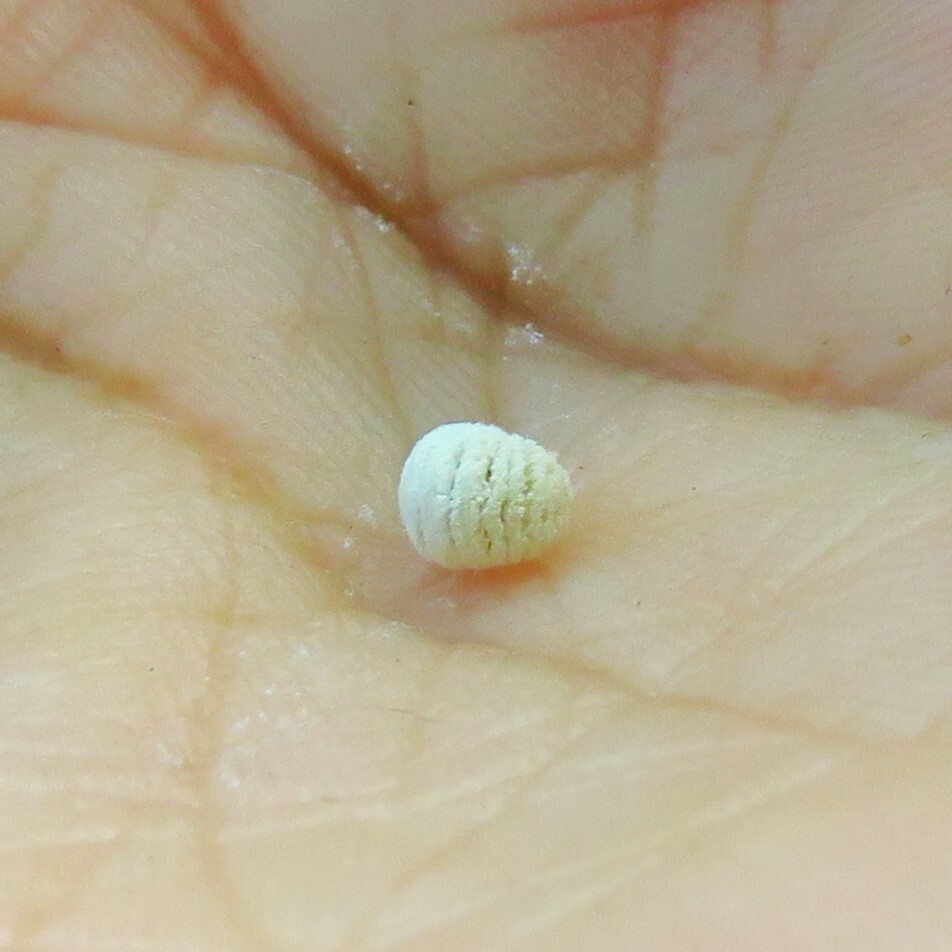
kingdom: Animalia
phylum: Arthropoda
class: Insecta
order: Lepidoptera
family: Epipyropidae
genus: Fulgoraecia
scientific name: Fulgoraecia exigua
